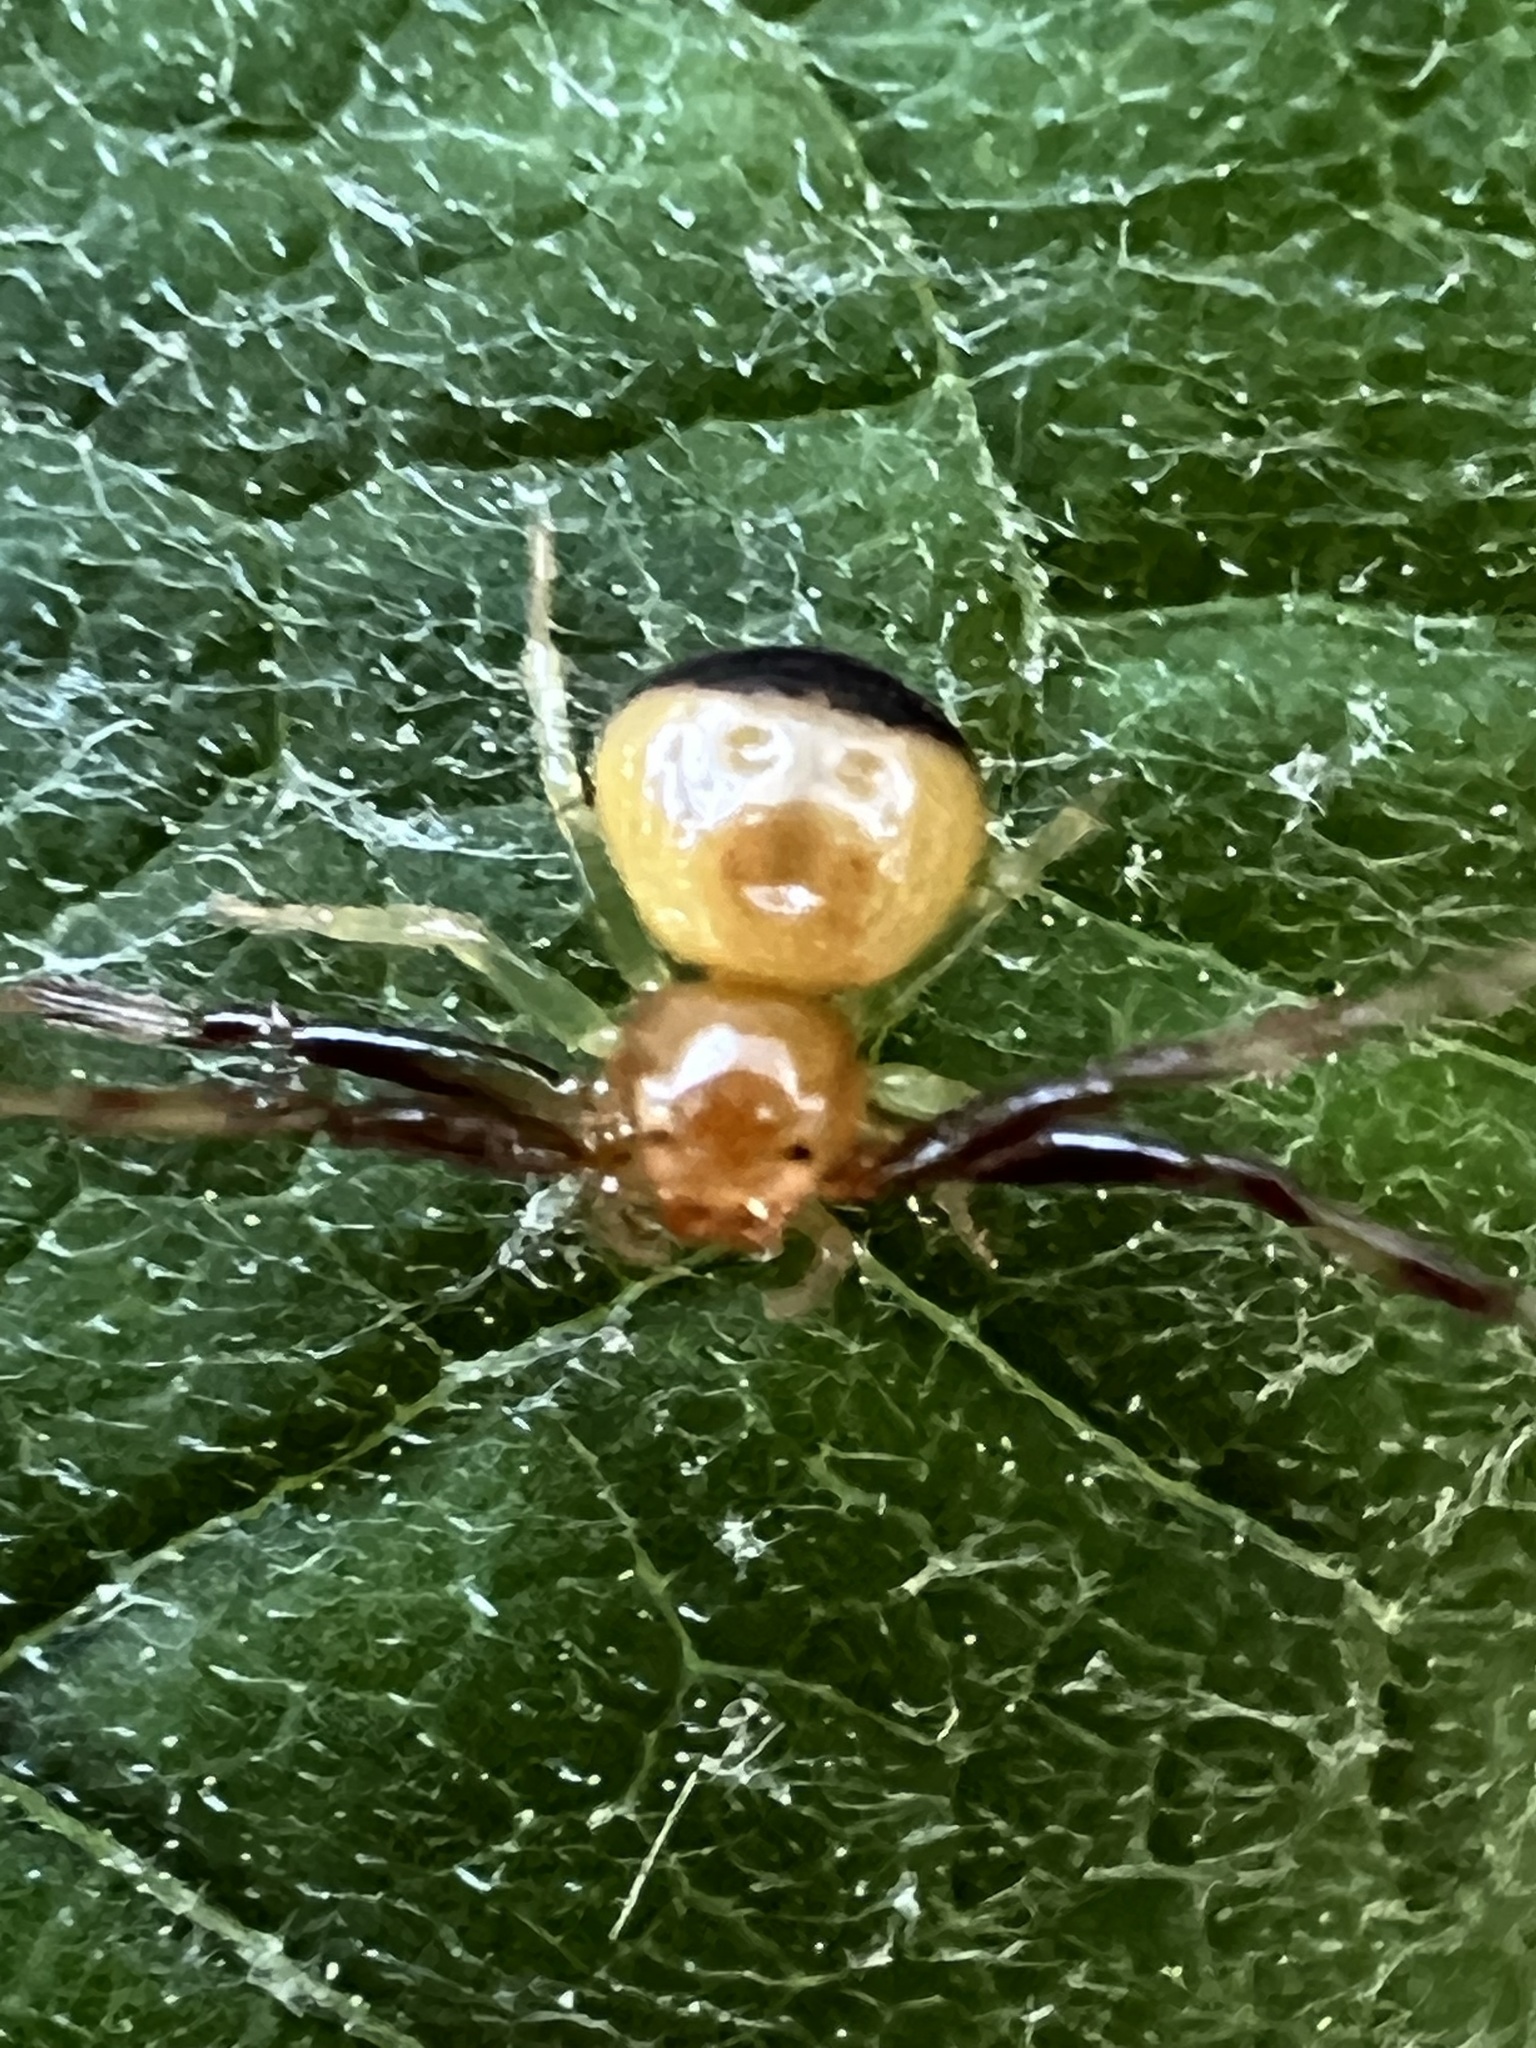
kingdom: Animalia
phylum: Arthropoda
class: Arachnida
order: Araneae
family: Thomisidae
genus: Synema
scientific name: Synema parvulum
